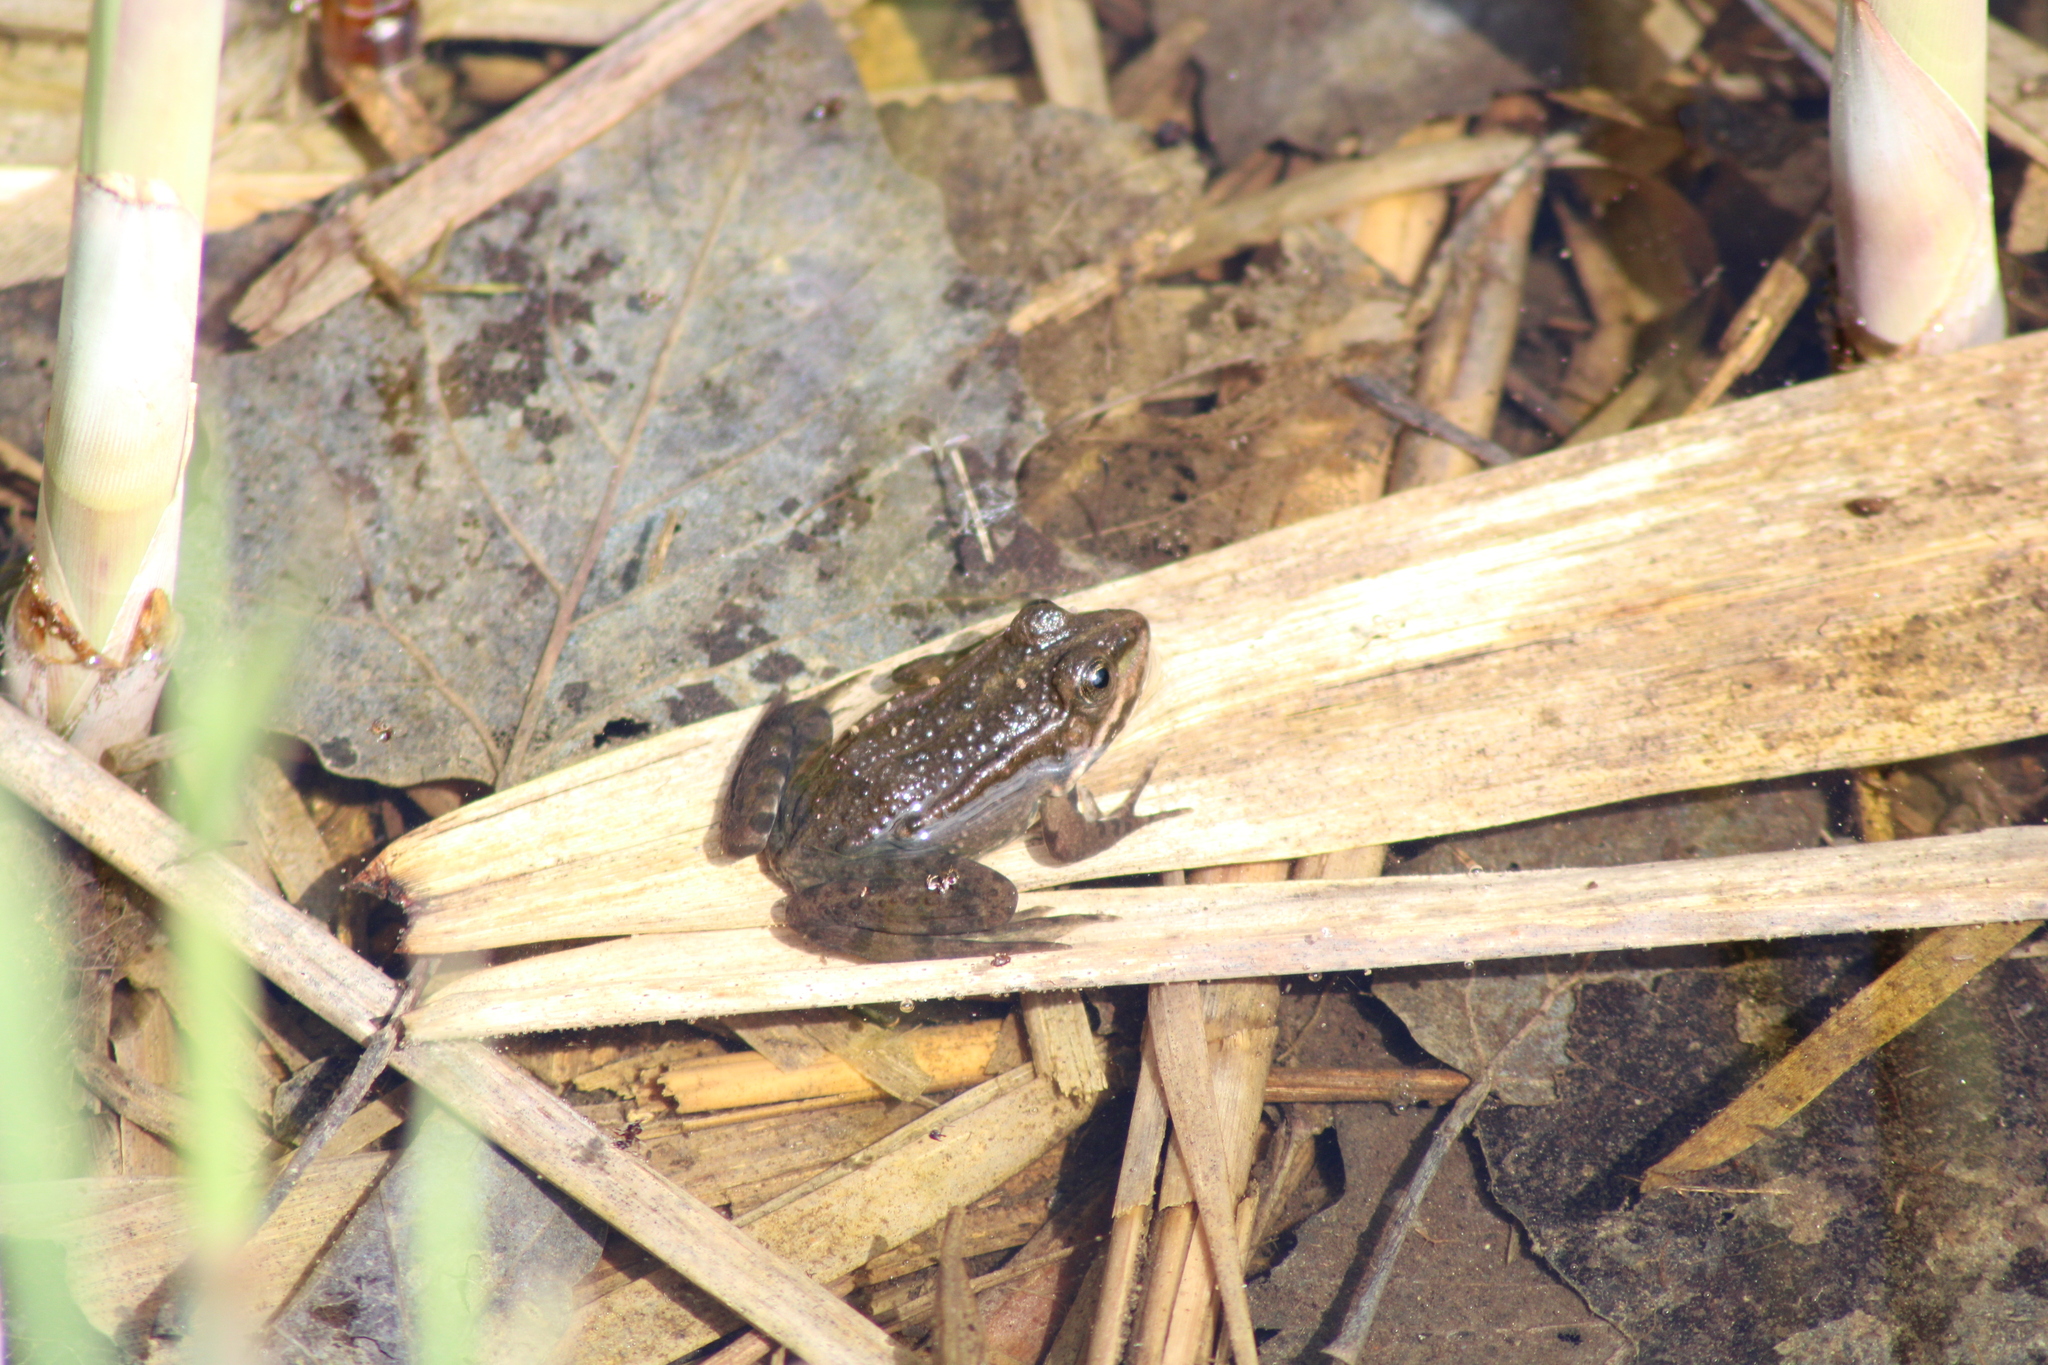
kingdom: Animalia
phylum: Chordata
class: Amphibia
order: Anura
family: Ranidae
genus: Pelophylax
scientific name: Pelophylax
